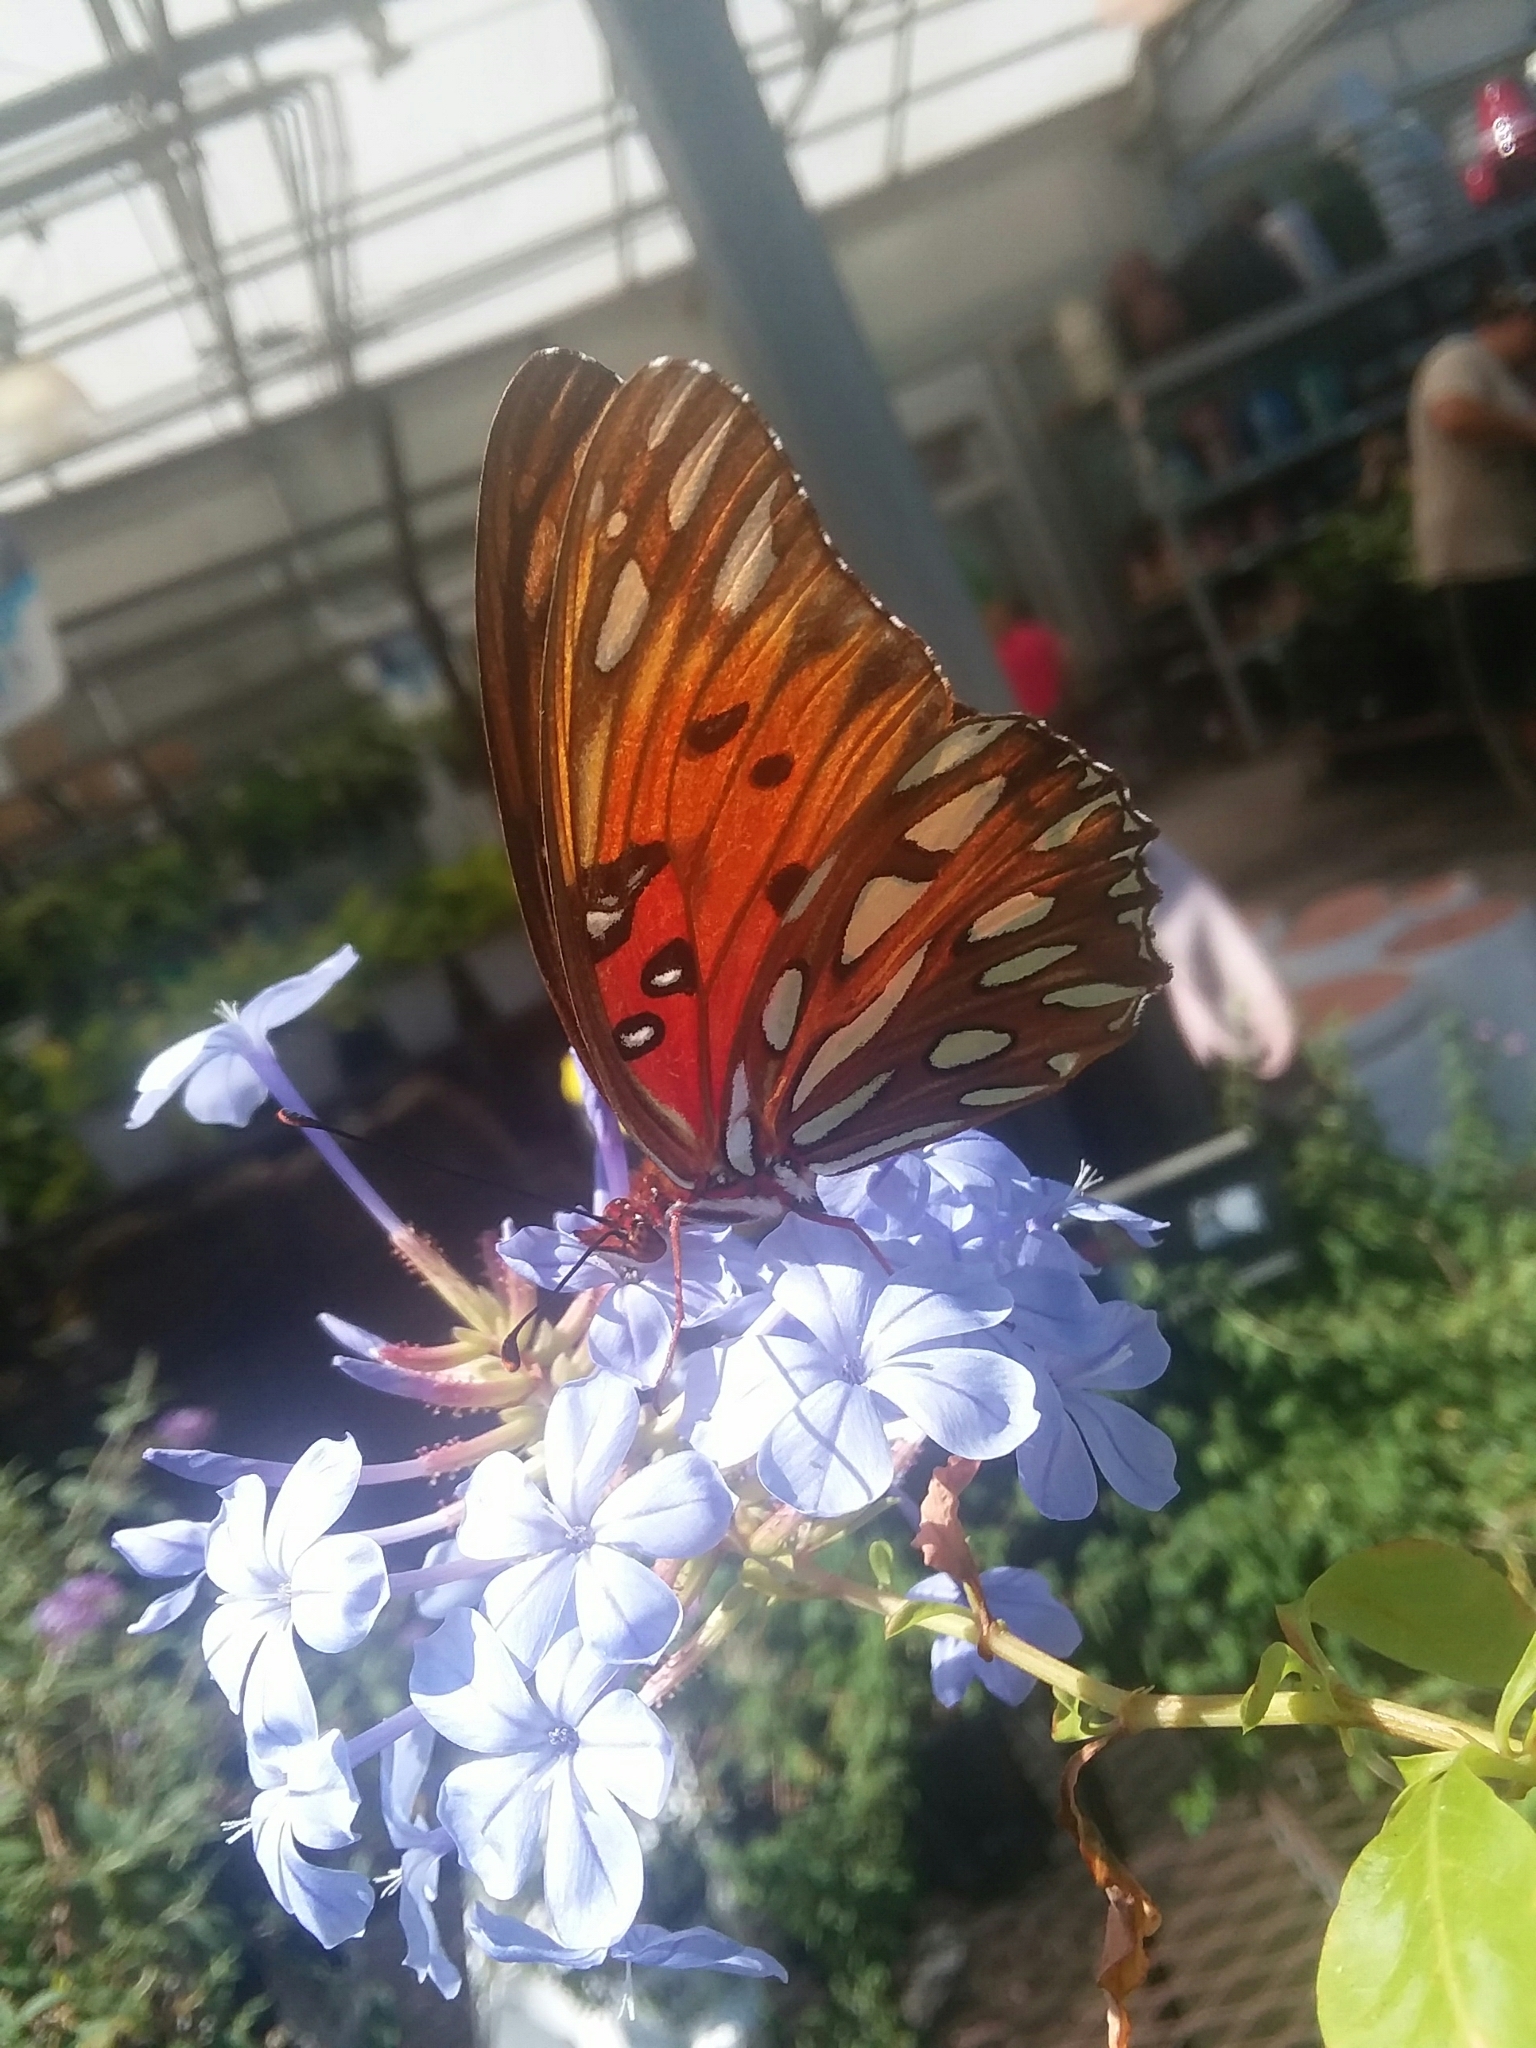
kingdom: Animalia
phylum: Arthropoda
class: Insecta
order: Lepidoptera
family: Nymphalidae
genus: Dione
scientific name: Dione vanillae
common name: Gulf fritillary
